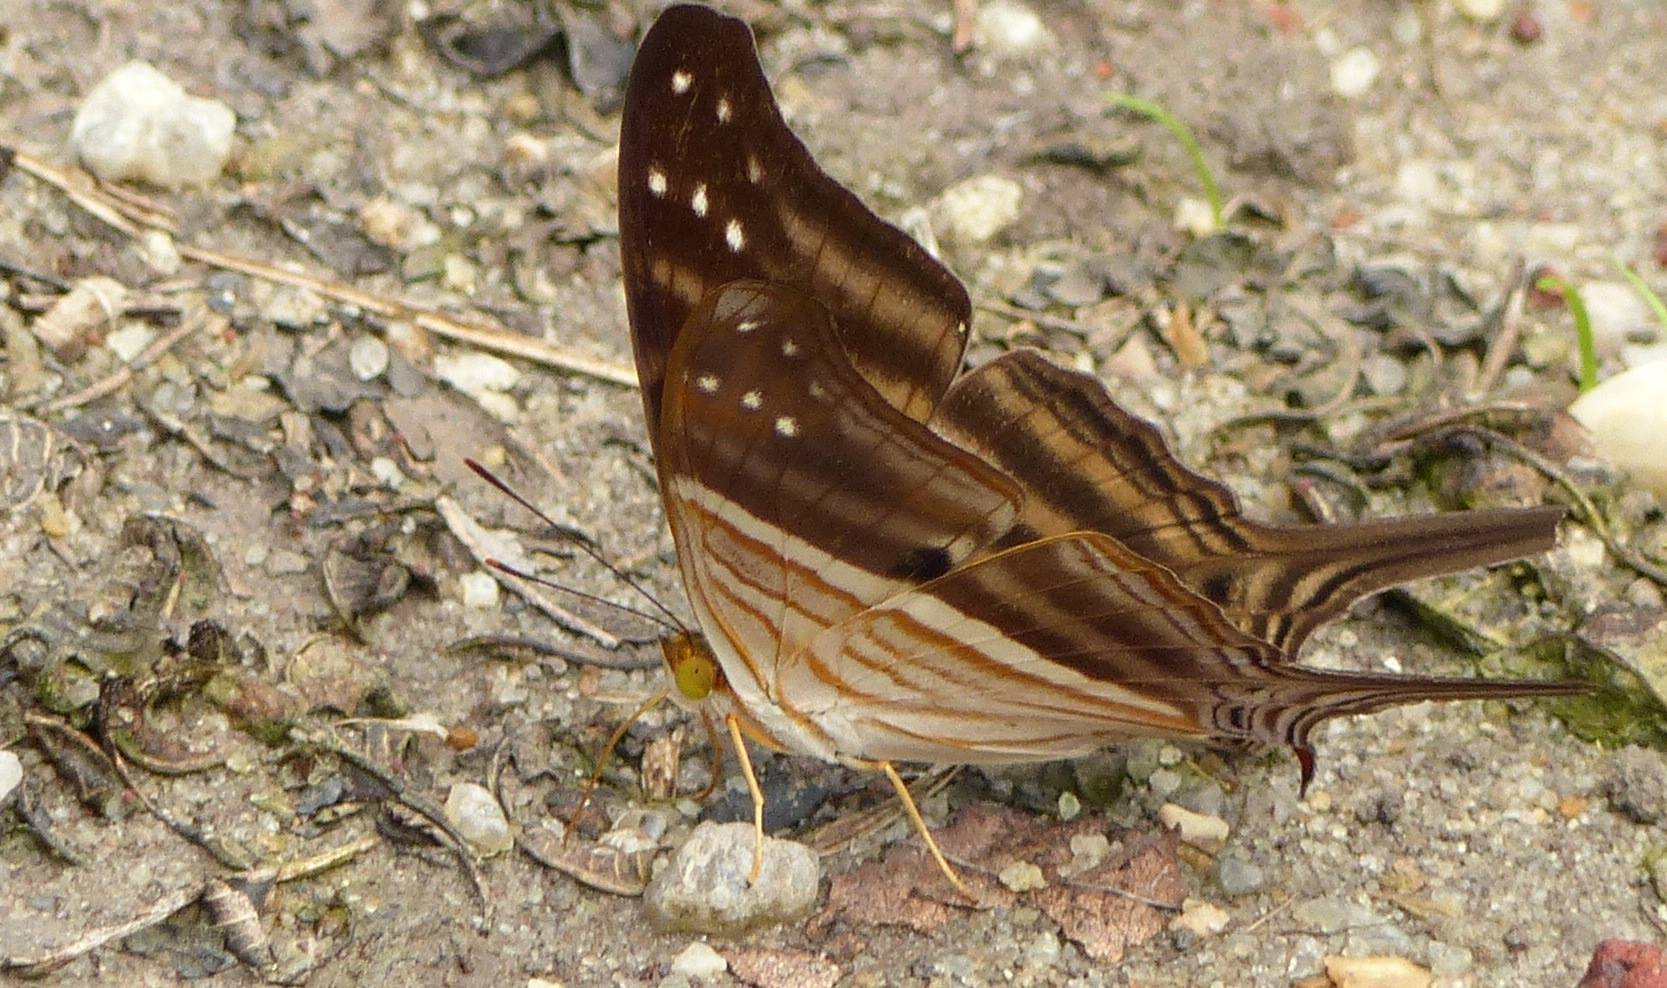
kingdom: Animalia
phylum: Arthropoda
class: Insecta
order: Lepidoptera
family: Nymphalidae
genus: Marpesia
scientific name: Marpesia chiron
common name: Many-banded daggerwing
